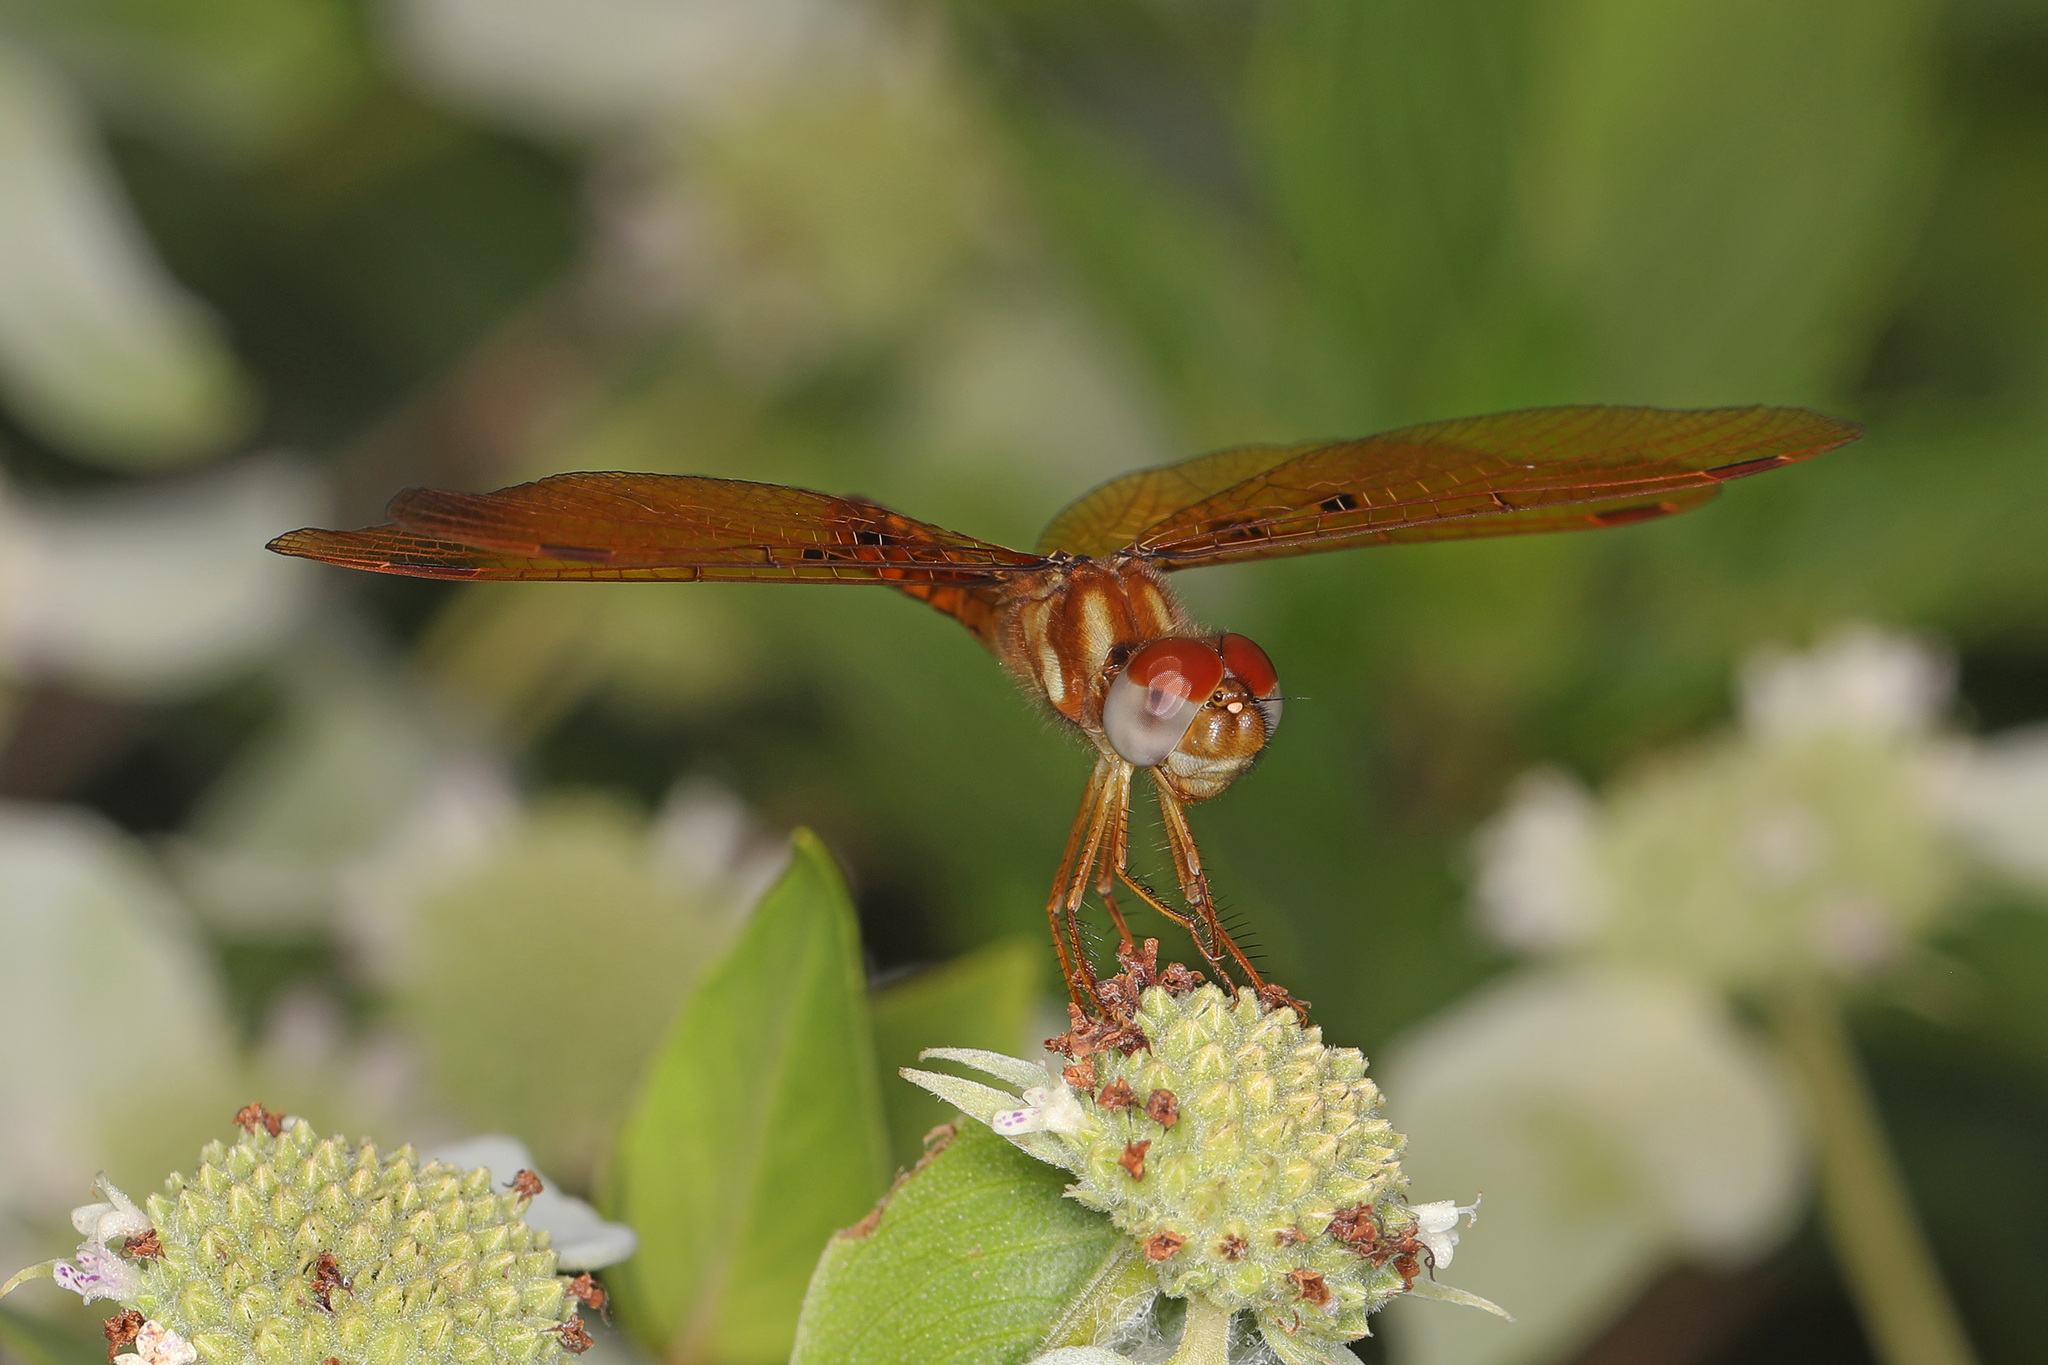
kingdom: Animalia
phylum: Arthropoda
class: Insecta
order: Odonata
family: Libellulidae
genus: Perithemis
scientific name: Perithemis tenera
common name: Eastern amberwing
